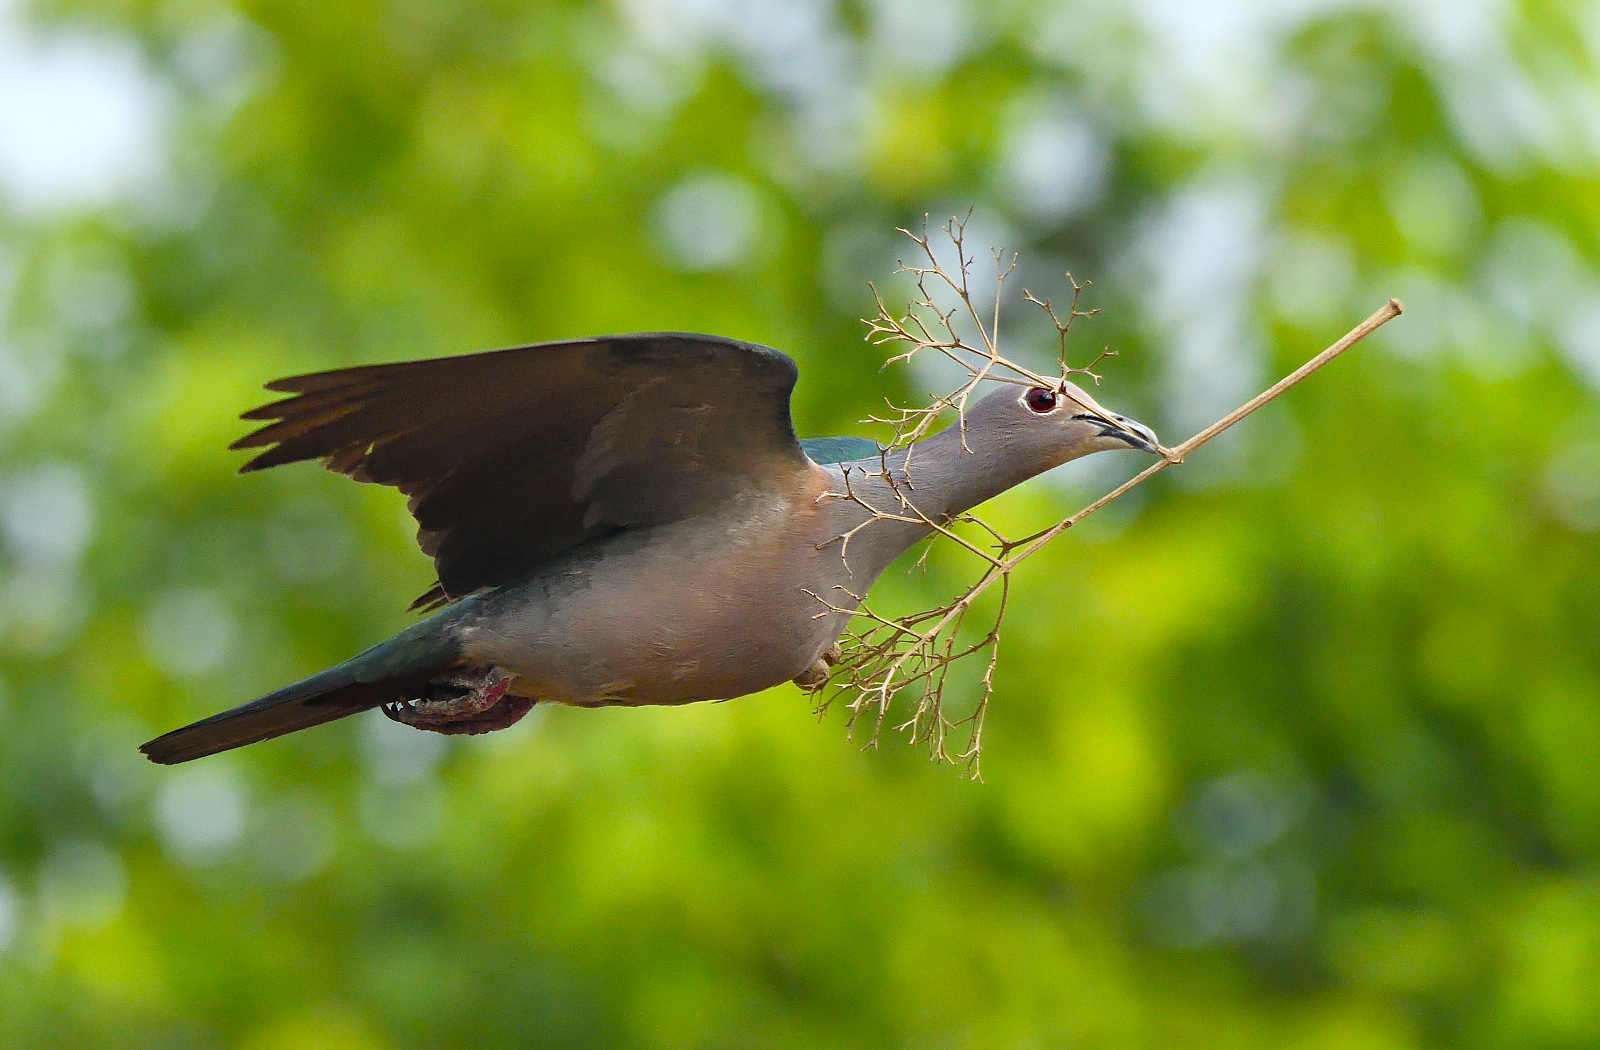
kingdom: Animalia
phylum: Chordata
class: Aves
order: Columbiformes
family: Columbidae
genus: Ducula
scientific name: Ducula aenea
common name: Green imperial pigeon
